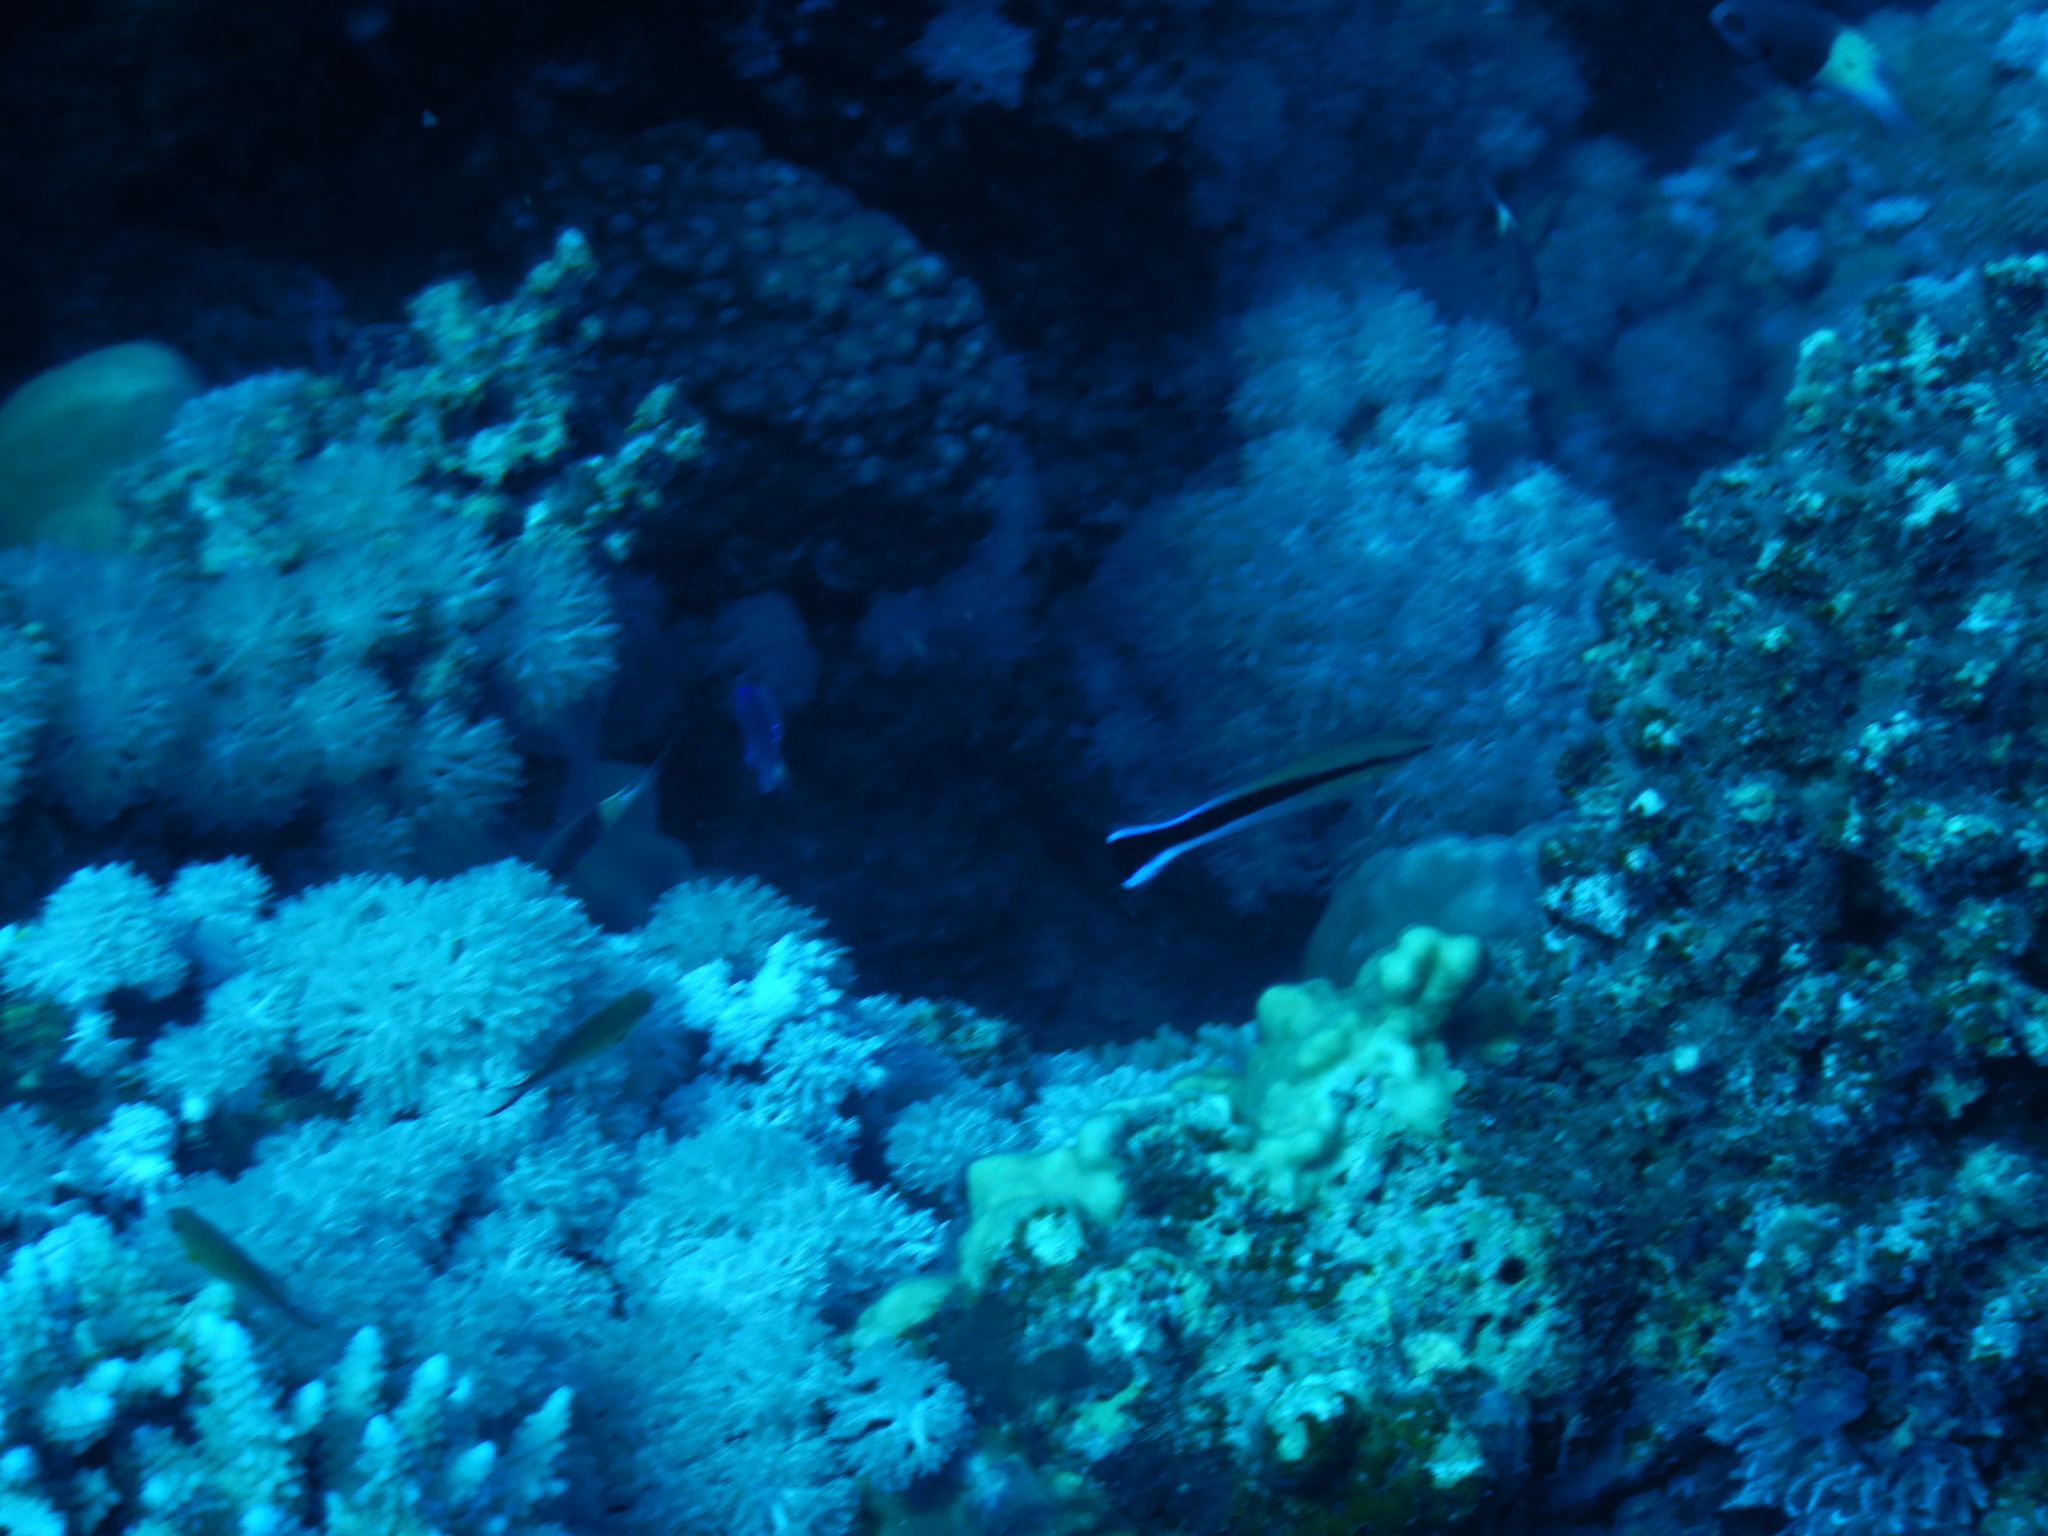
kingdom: Animalia
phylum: Chordata
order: Perciformes
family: Labridae
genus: Labroides
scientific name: Labroides dimidiatus
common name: Blue diesel wrasse
